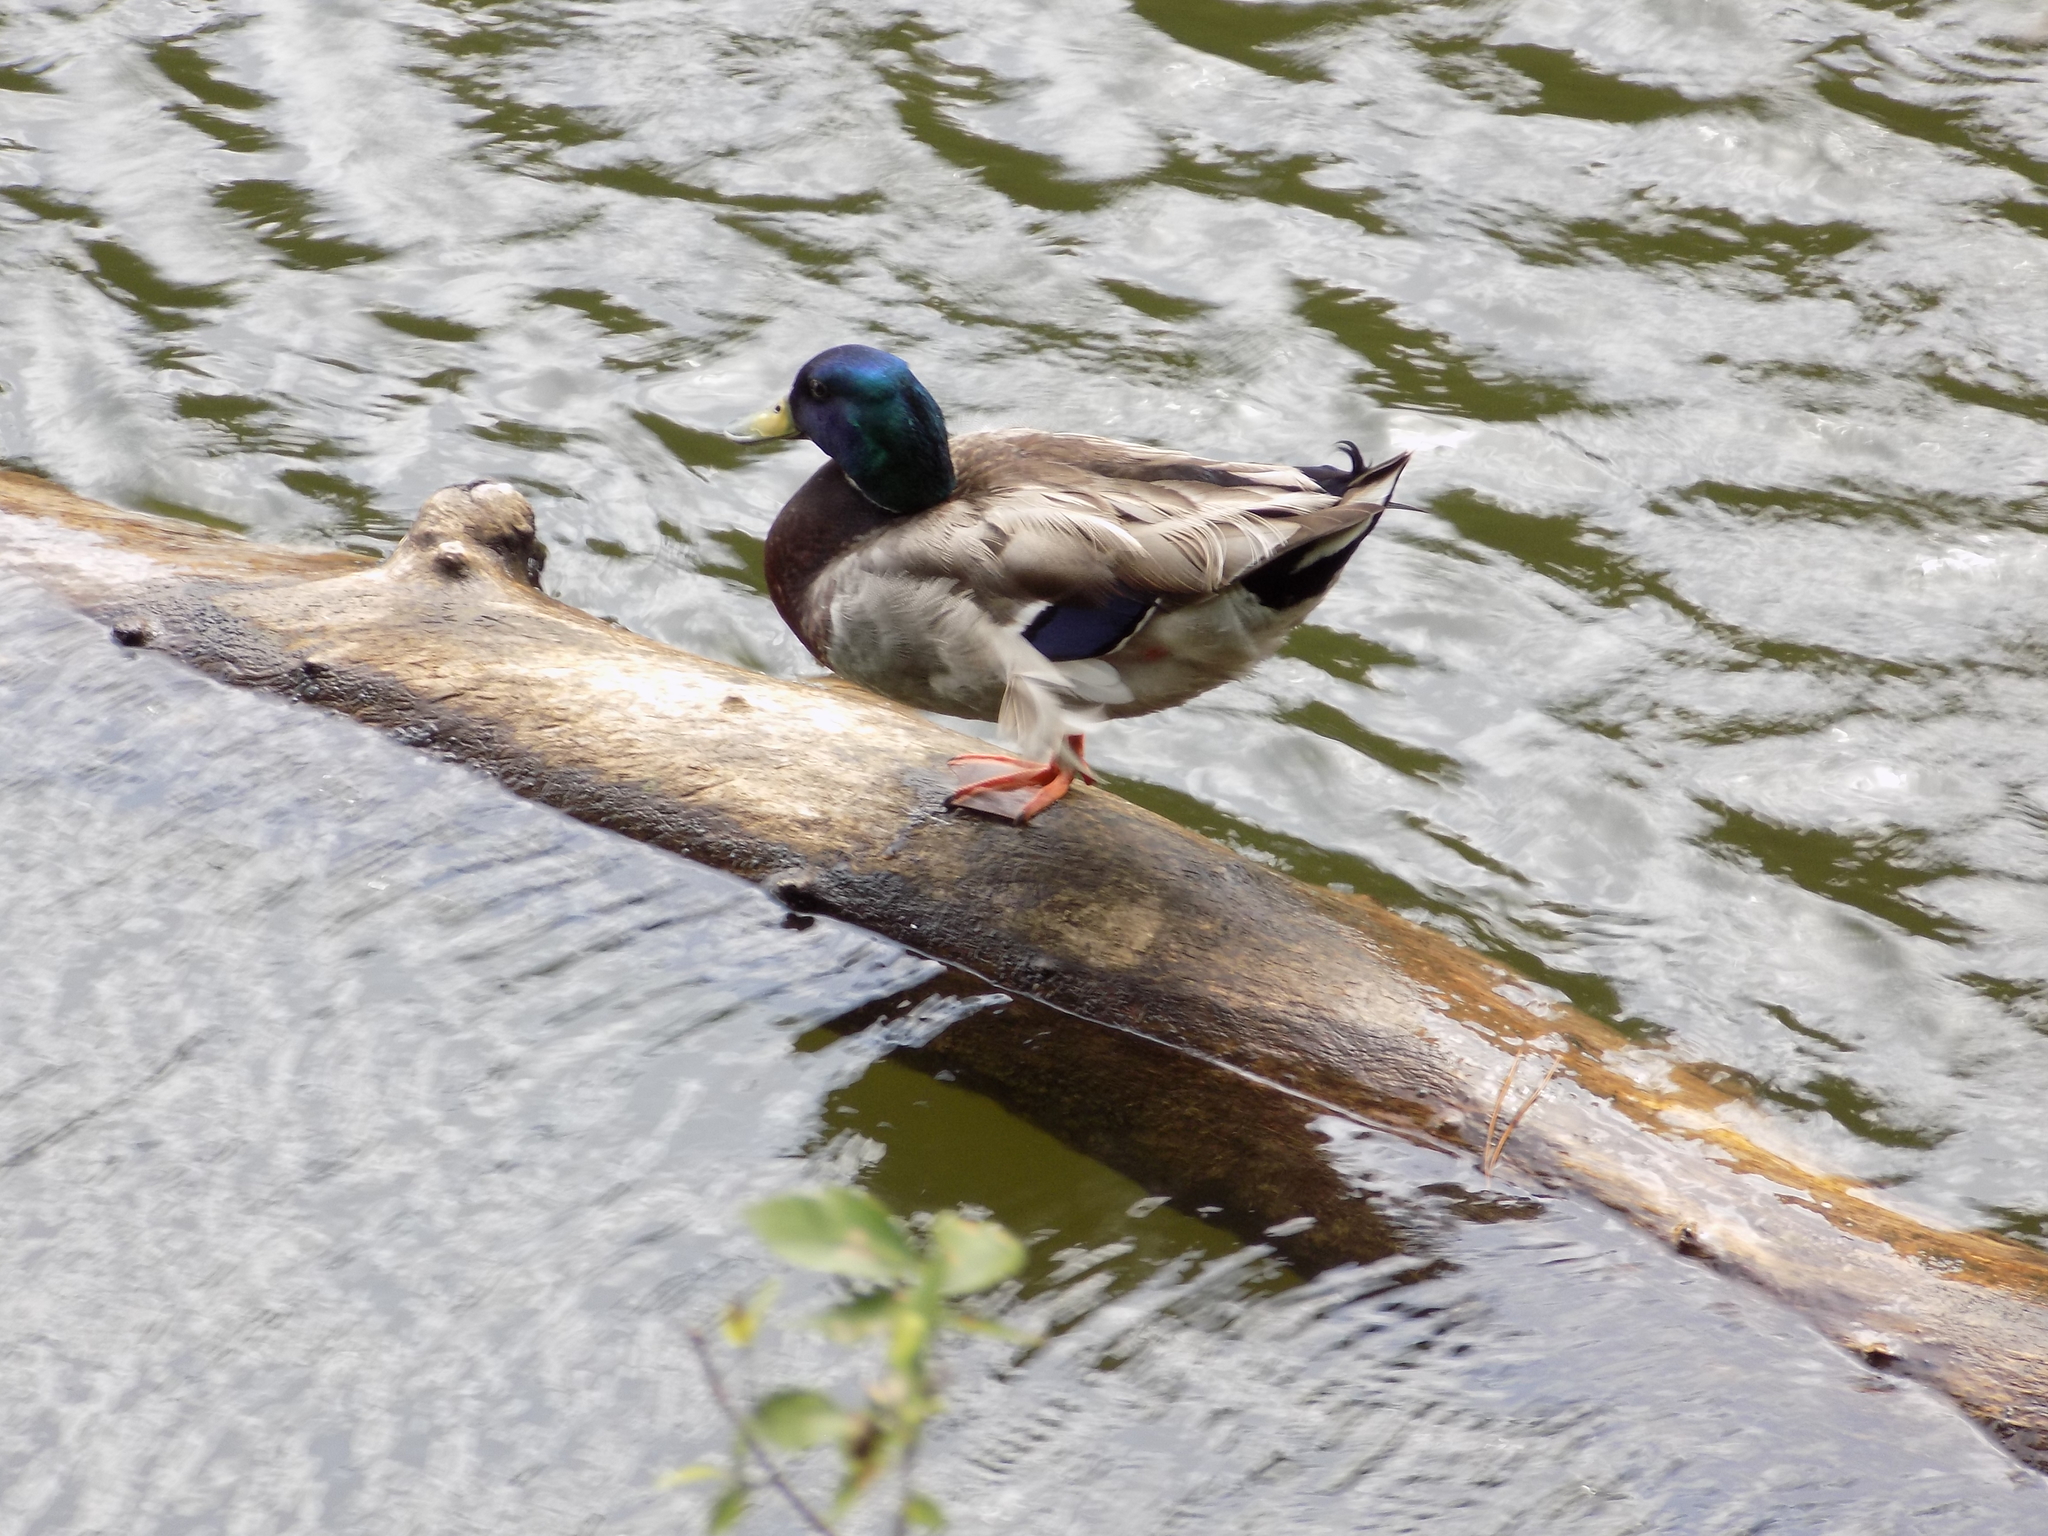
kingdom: Animalia
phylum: Chordata
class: Aves
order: Anseriformes
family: Anatidae
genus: Anas
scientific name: Anas platyrhynchos
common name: Mallard
